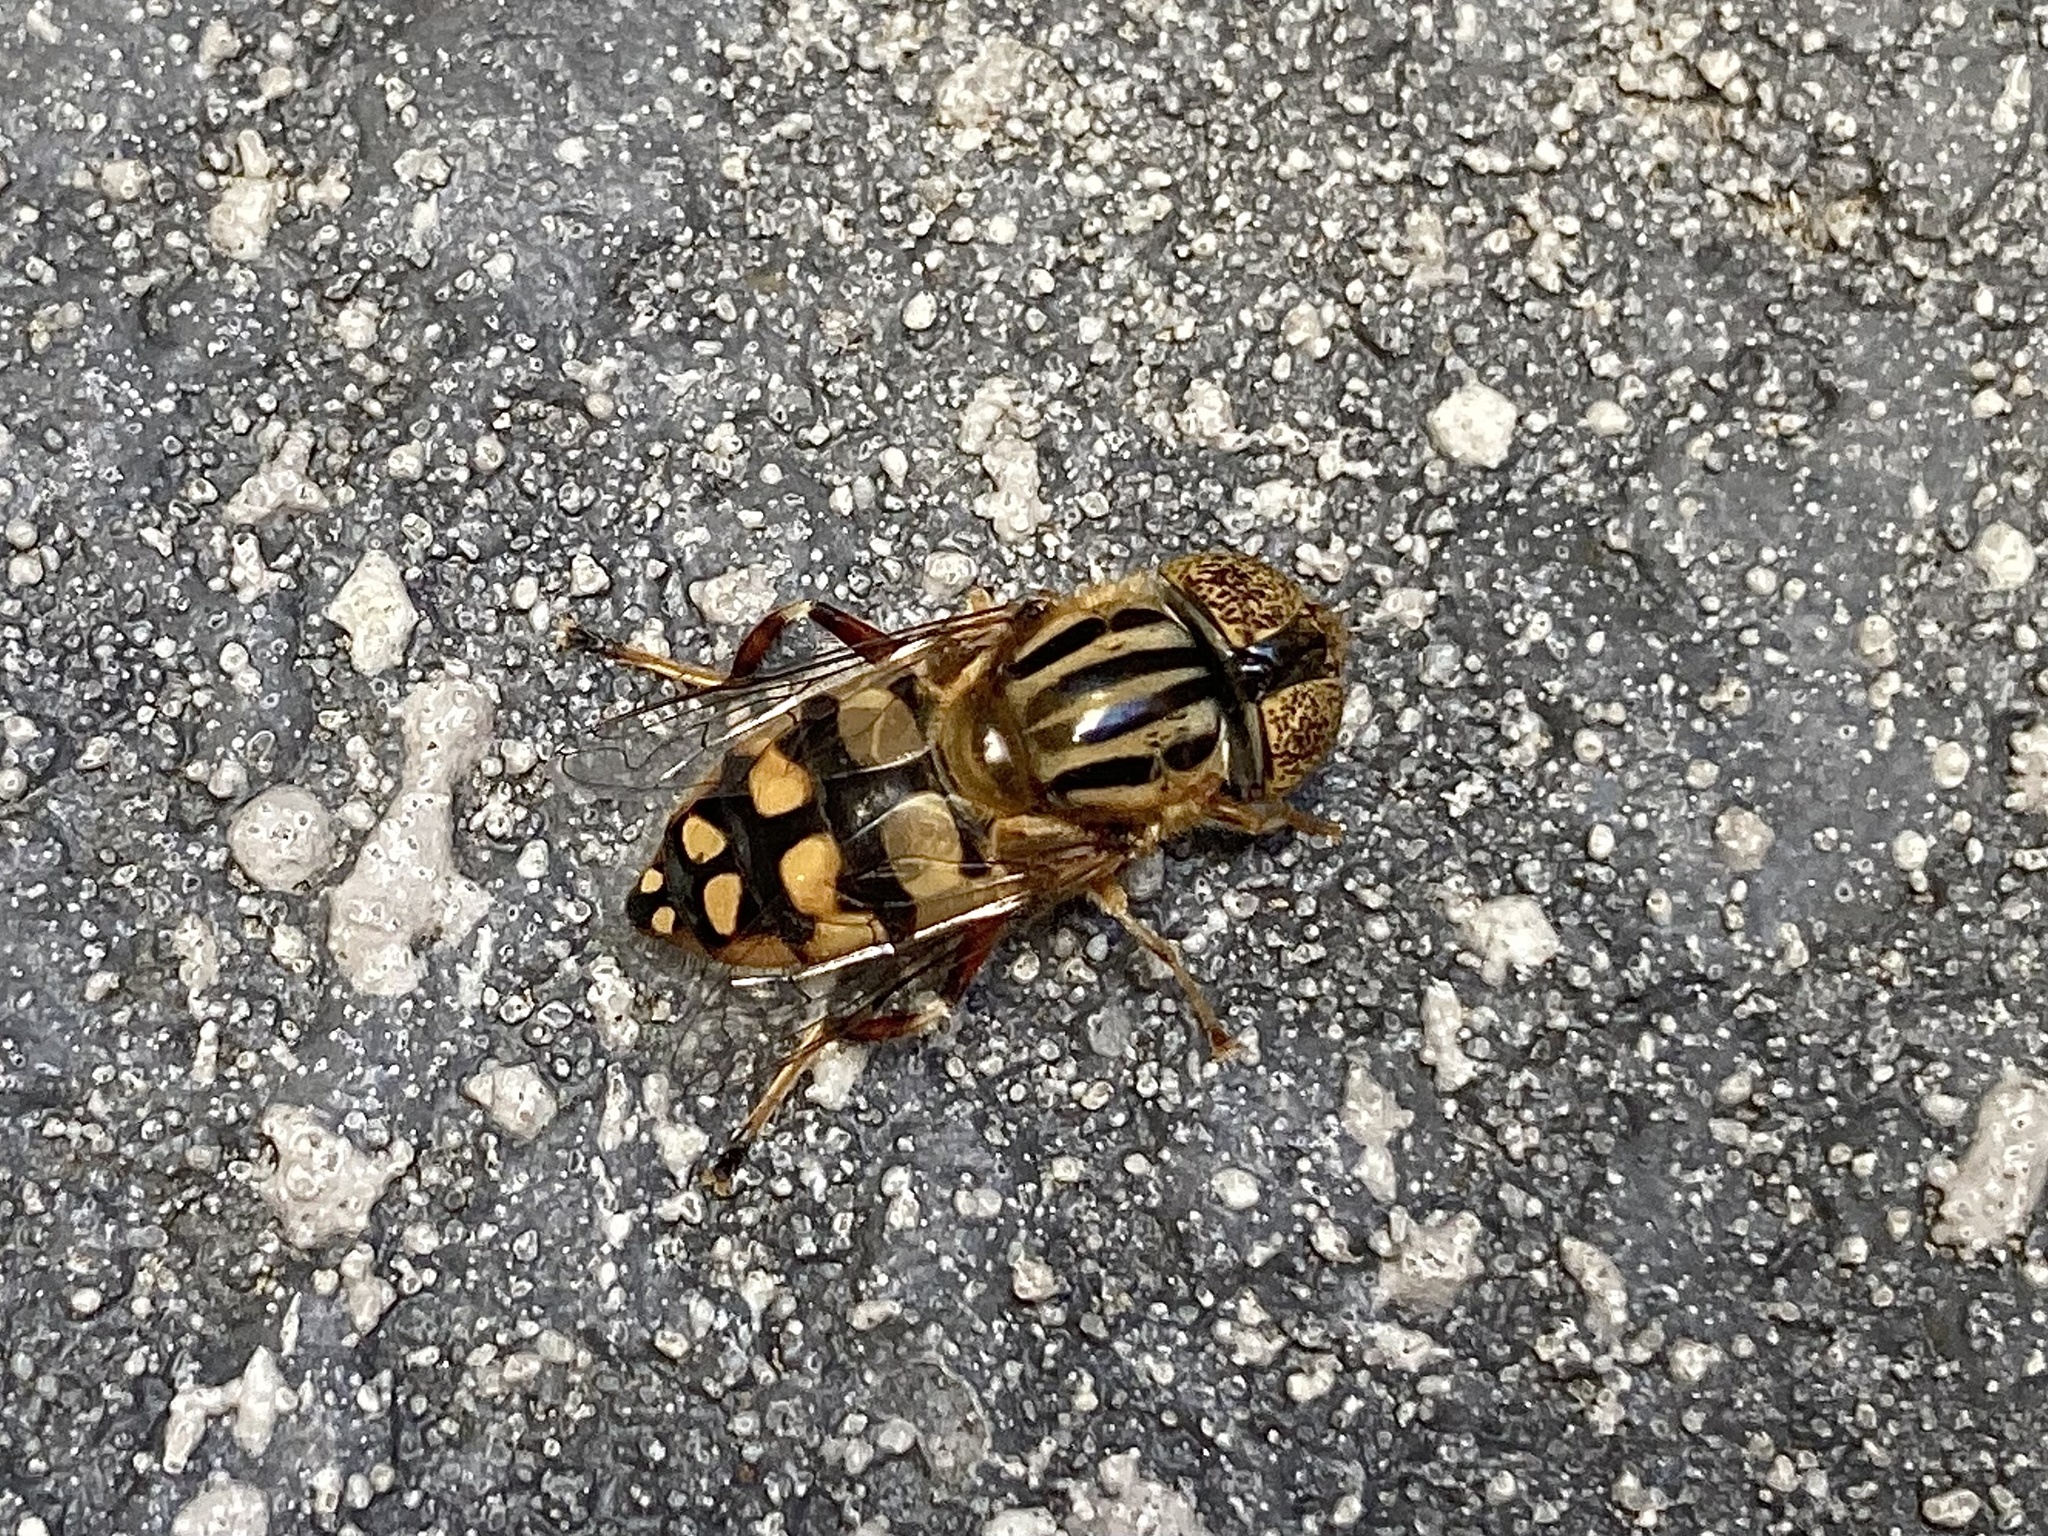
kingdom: Animalia
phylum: Arthropoda
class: Insecta
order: Diptera
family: Syrphidae
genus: Eristalinus
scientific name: Eristalinus punctulatus
